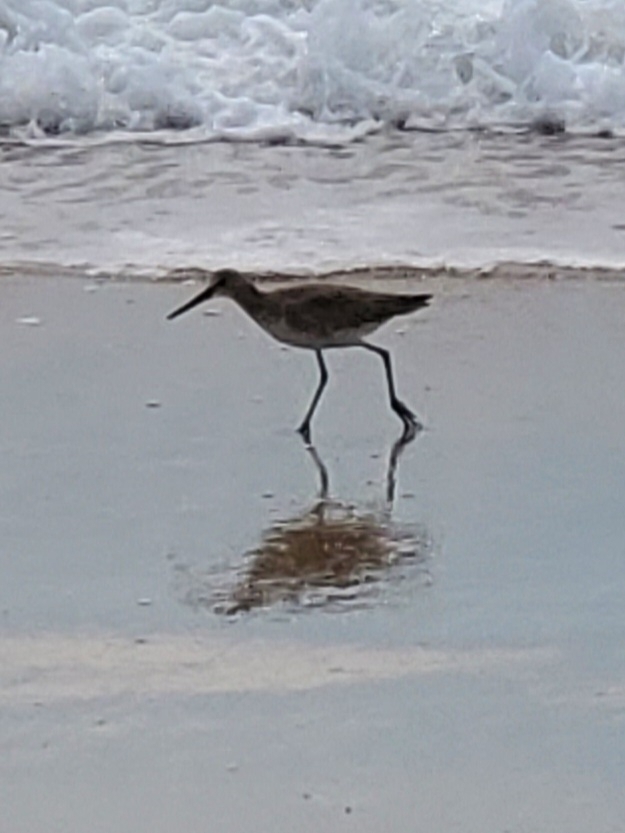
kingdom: Animalia
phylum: Chordata
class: Aves
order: Charadriiformes
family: Scolopacidae
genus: Tringa
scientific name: Tringa semipalmata
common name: Willet
